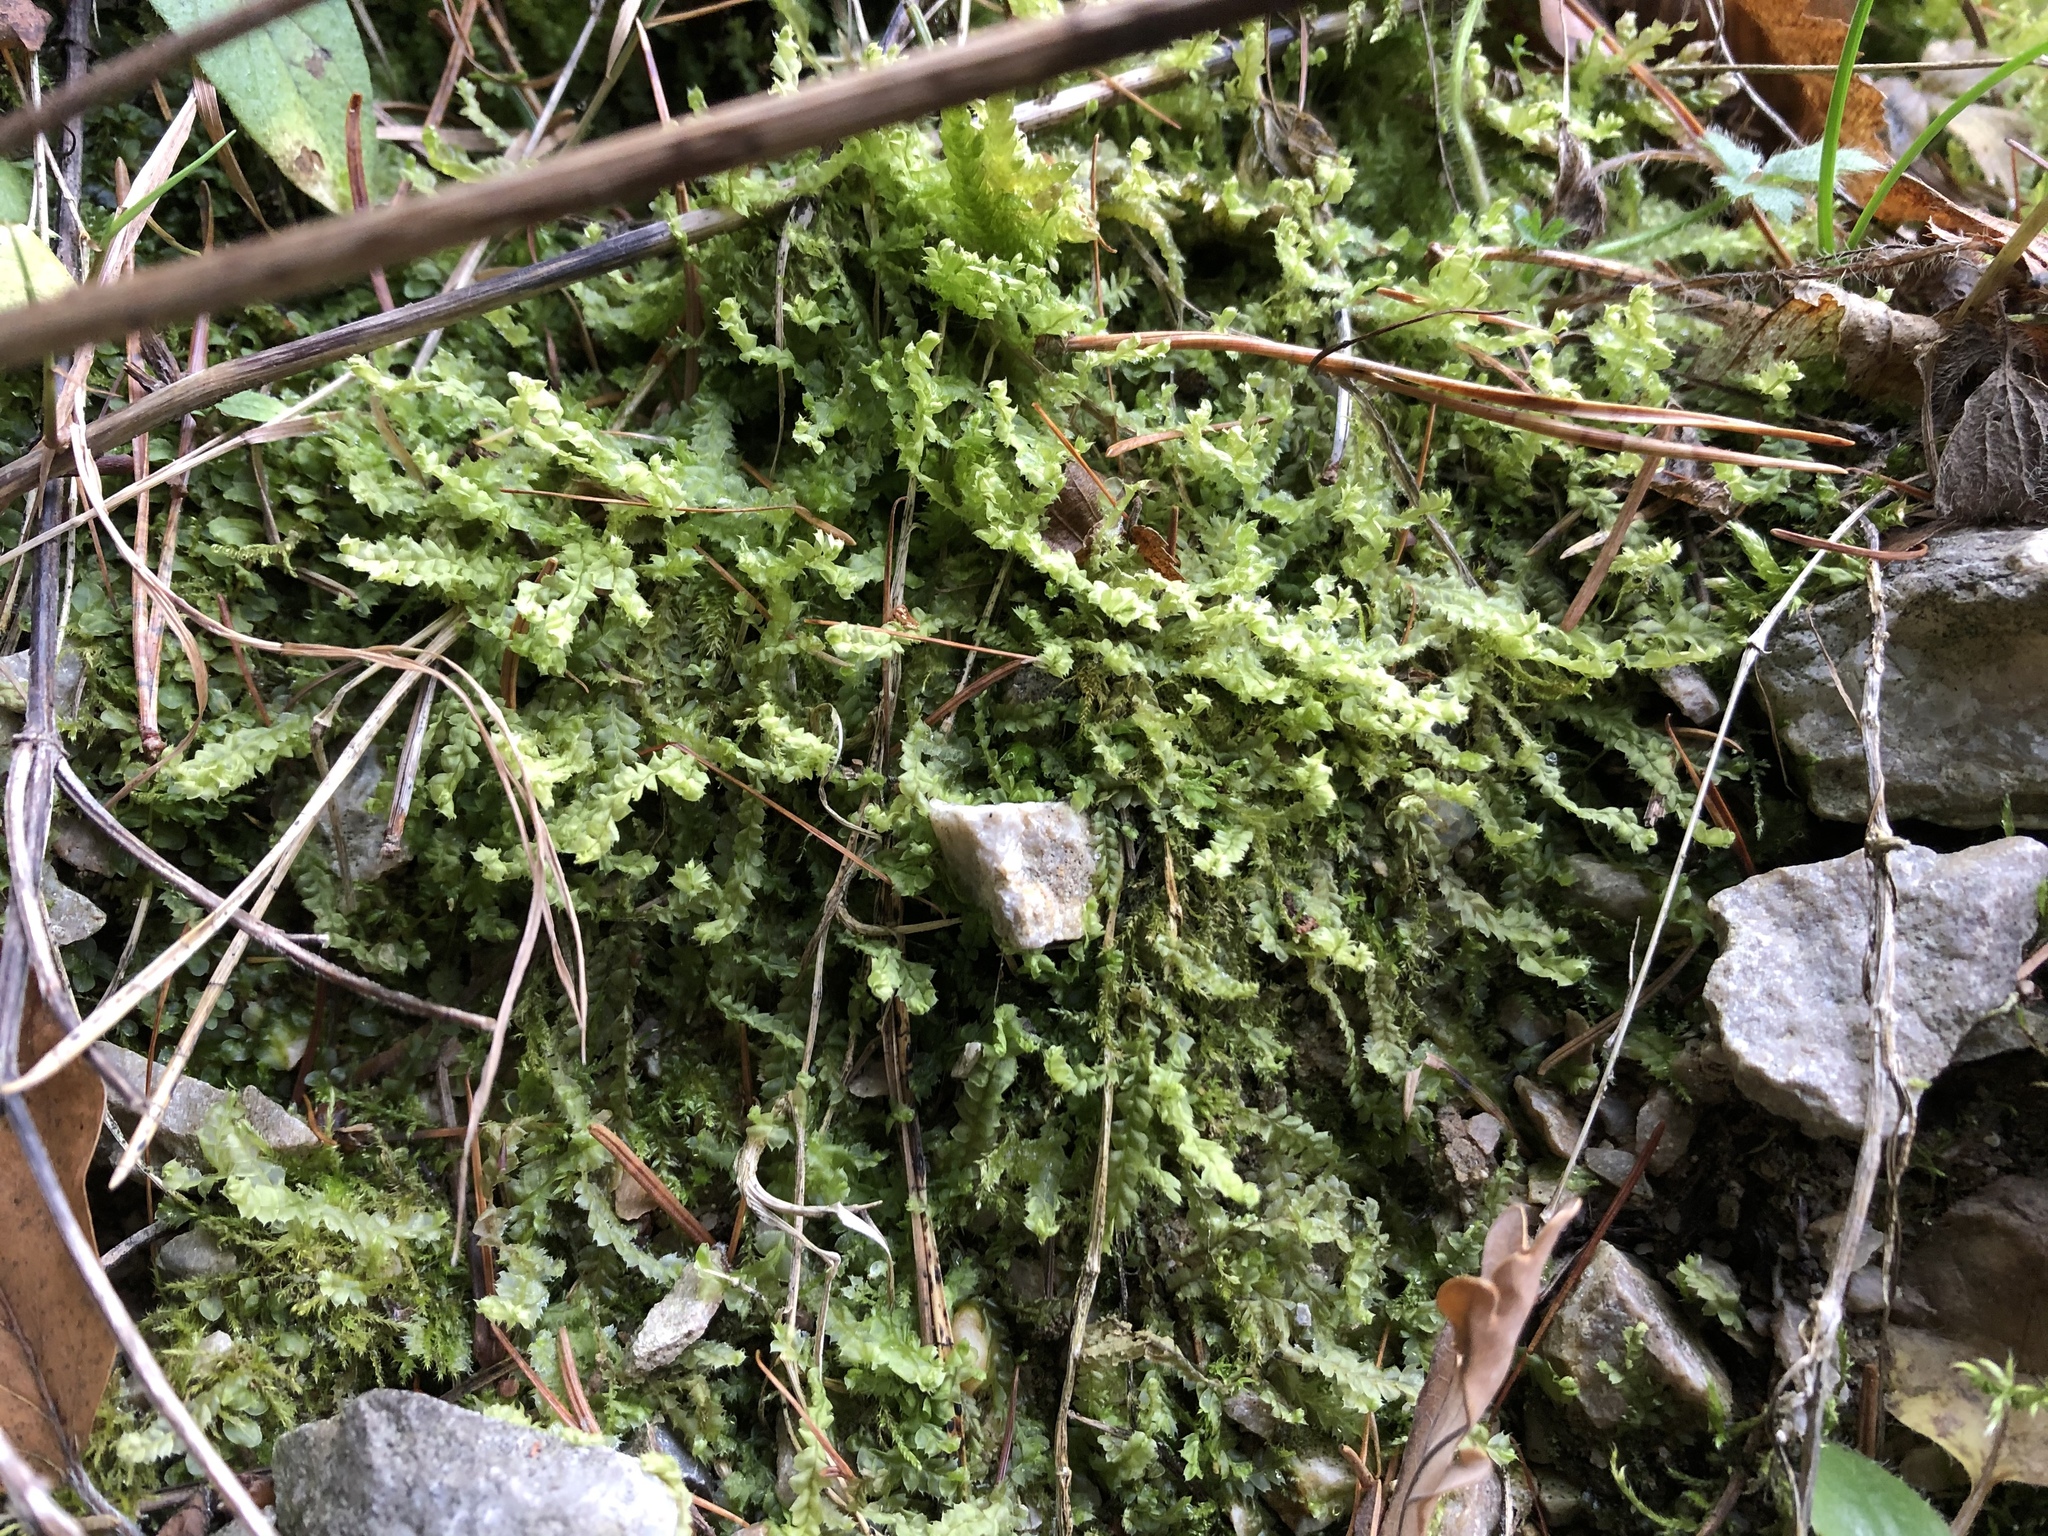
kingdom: Plantae
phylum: Marchantiophyta
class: Jungermanniopsida
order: Jungermanniales
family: Lophocoleaceae
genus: Lophocolea
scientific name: Lophocolea bidentata
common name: Bifid crestwort
